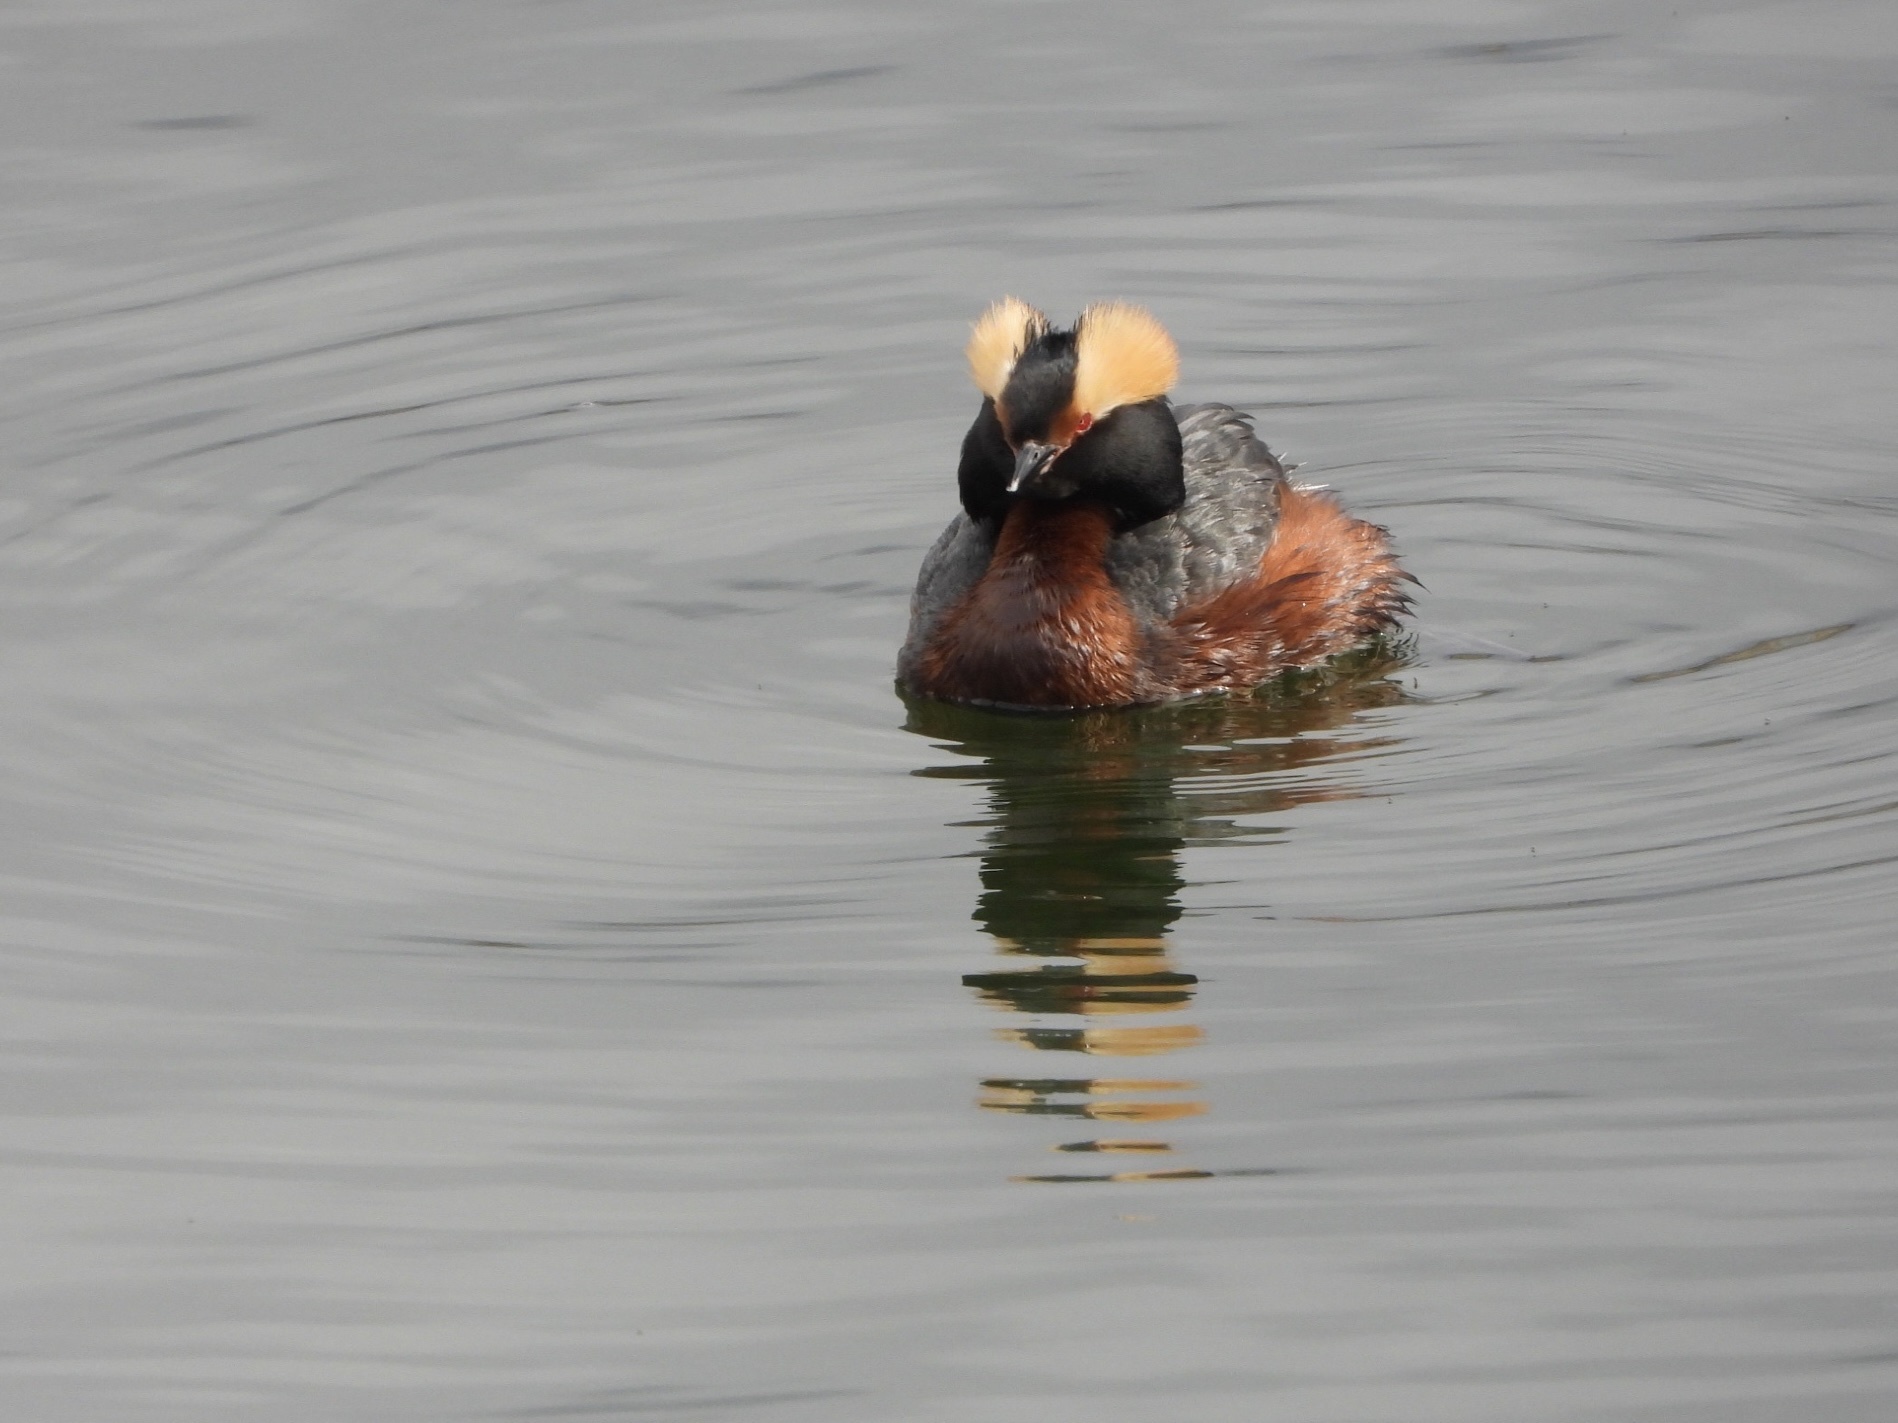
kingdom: Animalia
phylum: Chordata
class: Aves
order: Podicipediformes
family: Podicipedidae
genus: Podiceps
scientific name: Podiceps auritus
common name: Horned grebe
